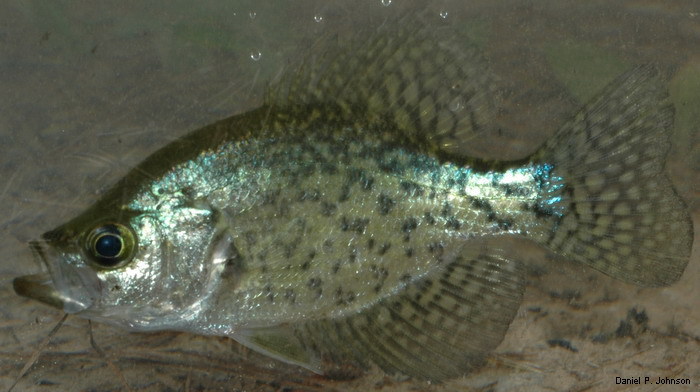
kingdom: Animalia
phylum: Chordata
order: Perciformes
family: Centrarchidae
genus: Pomoxis
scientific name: Pomoxis nigromaculatus
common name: Black crappie
